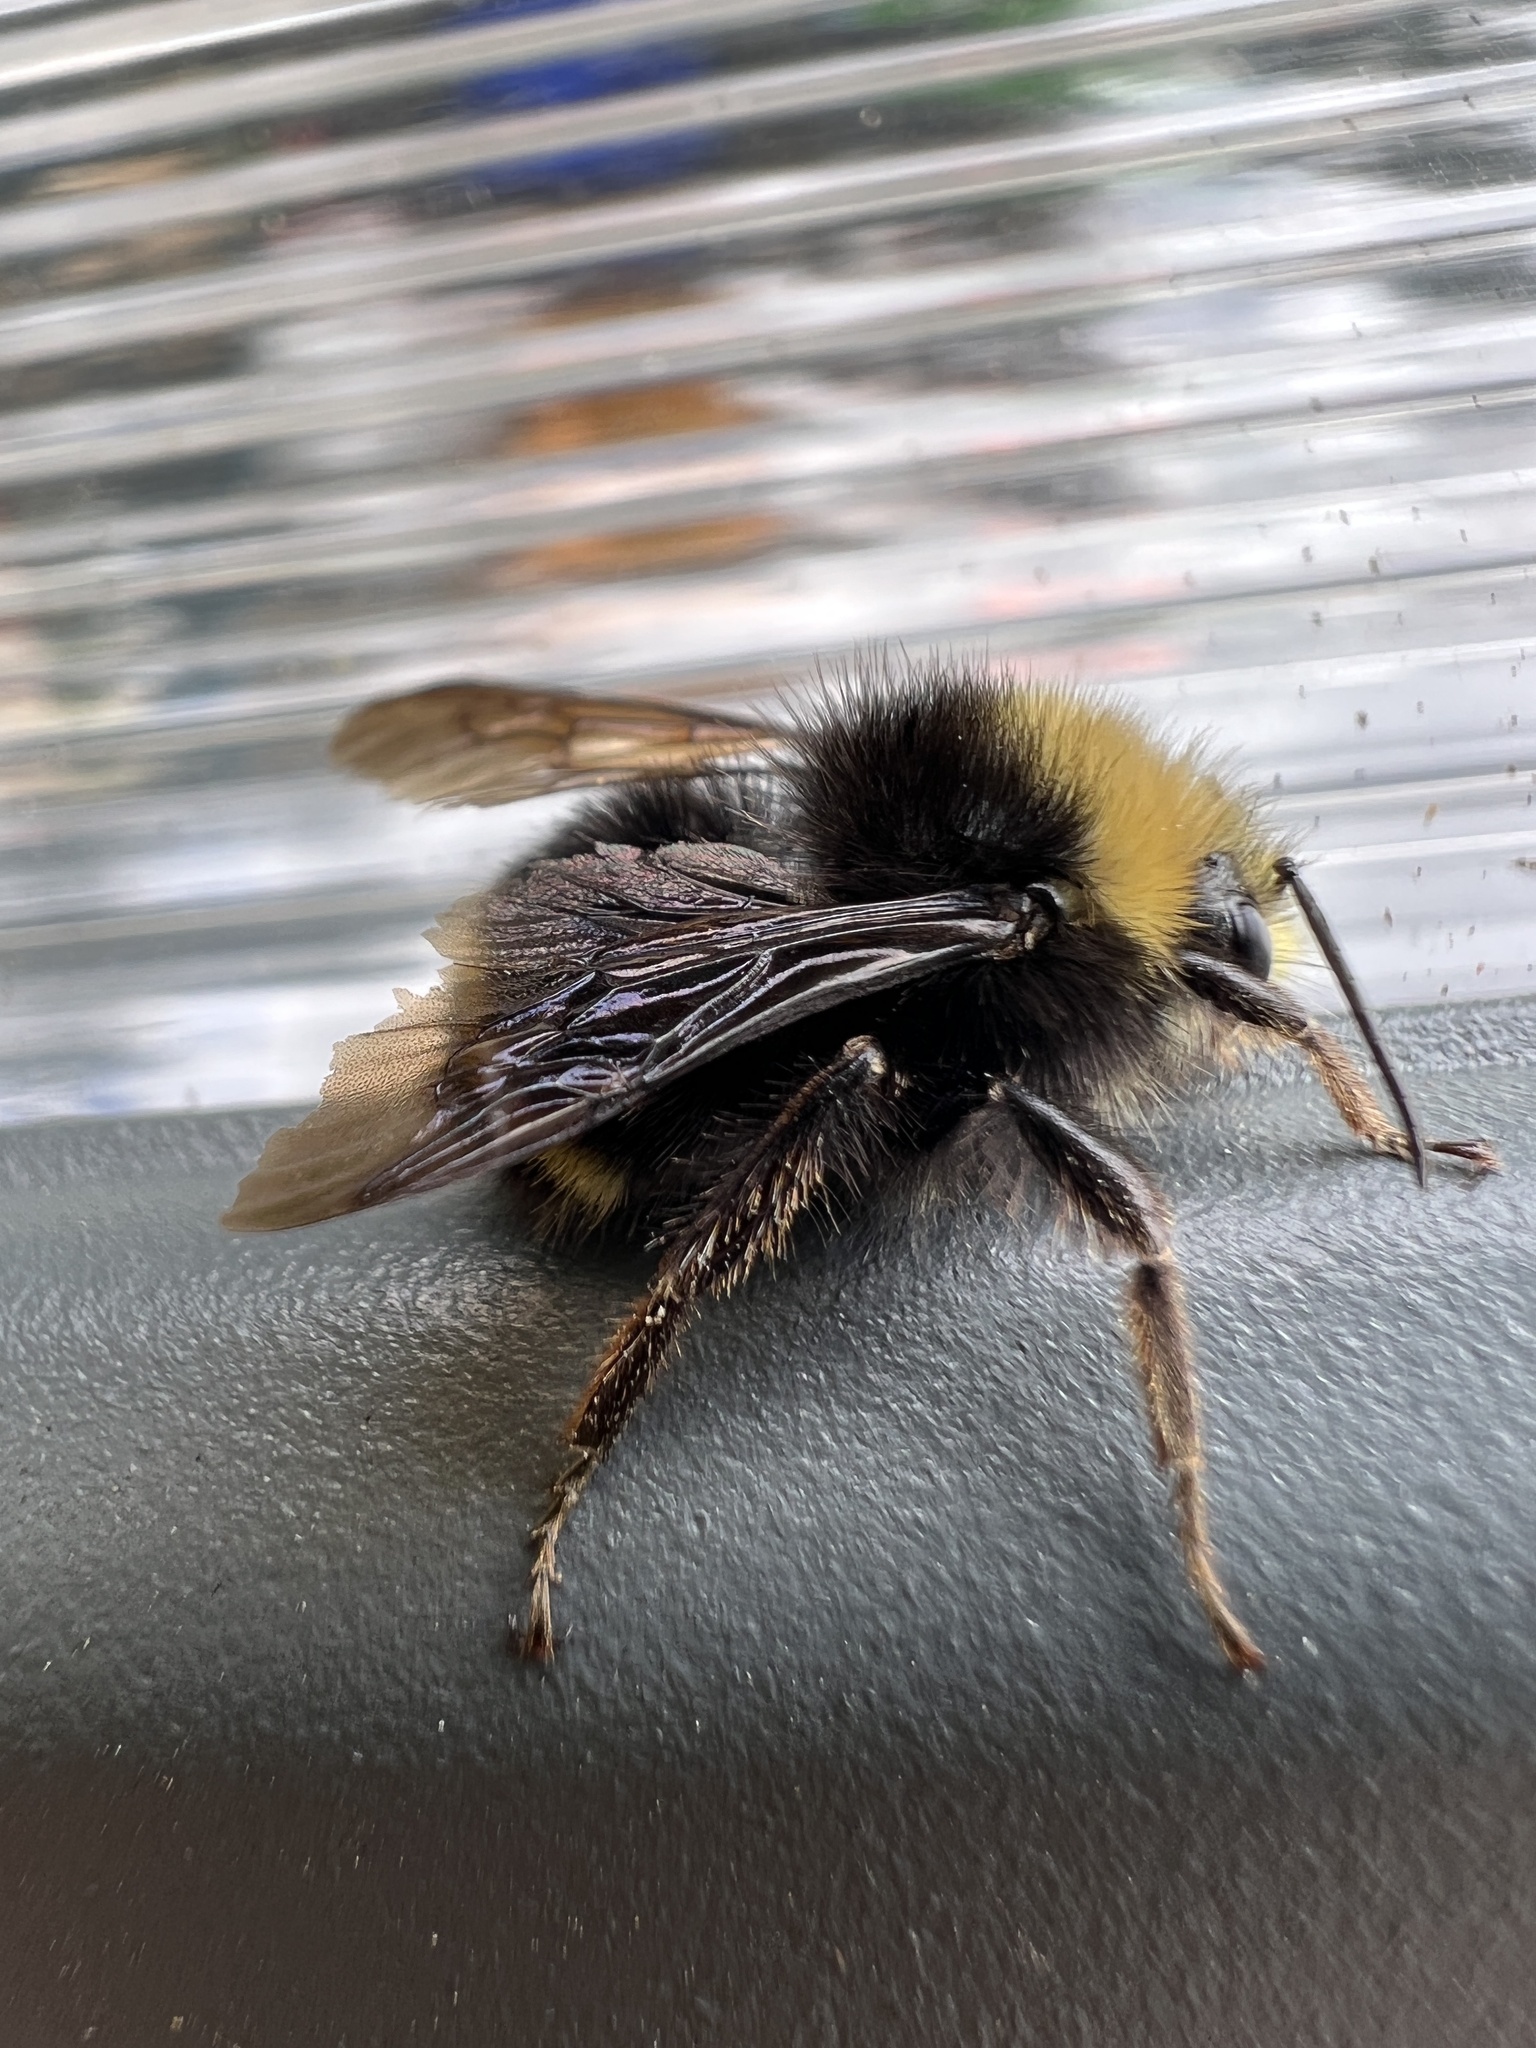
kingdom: Animalia
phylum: Arthropoda
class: Insecta
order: Hymenoptera
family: Apidae
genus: Bombus
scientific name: Bombus vosnesenskii
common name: Vosnesensky bumble bee
